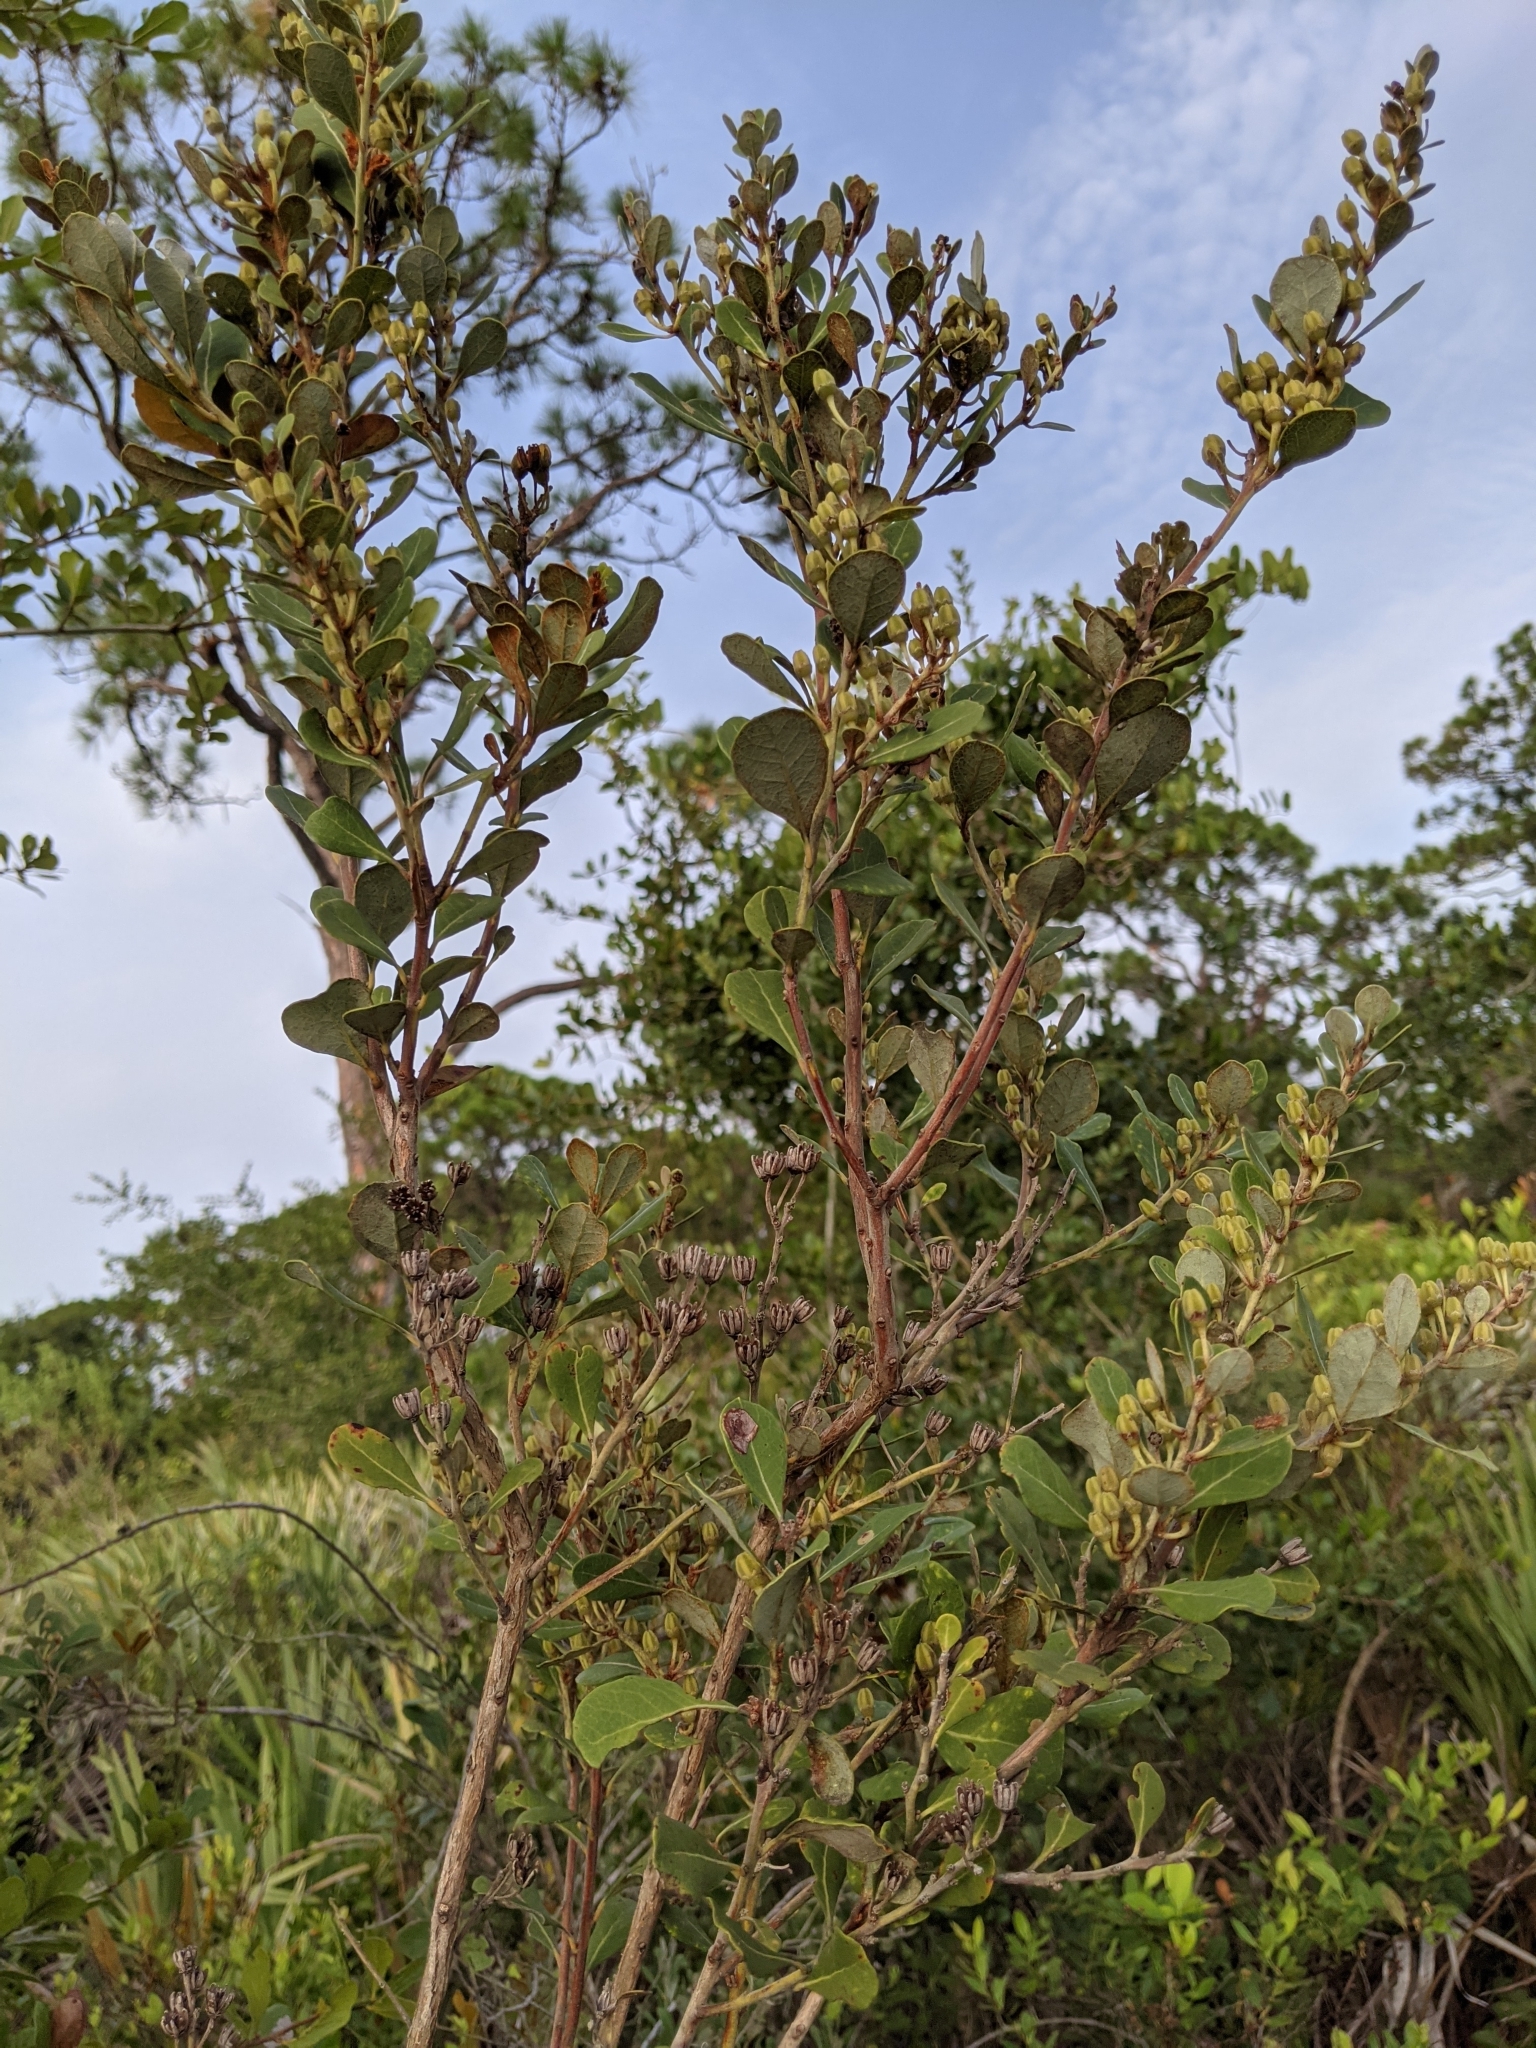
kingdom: Plantae
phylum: Tracheophyta
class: Magnoliopsida
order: Ericales
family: Ericaceae
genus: Lyonia
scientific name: Lyonia fruticosa
